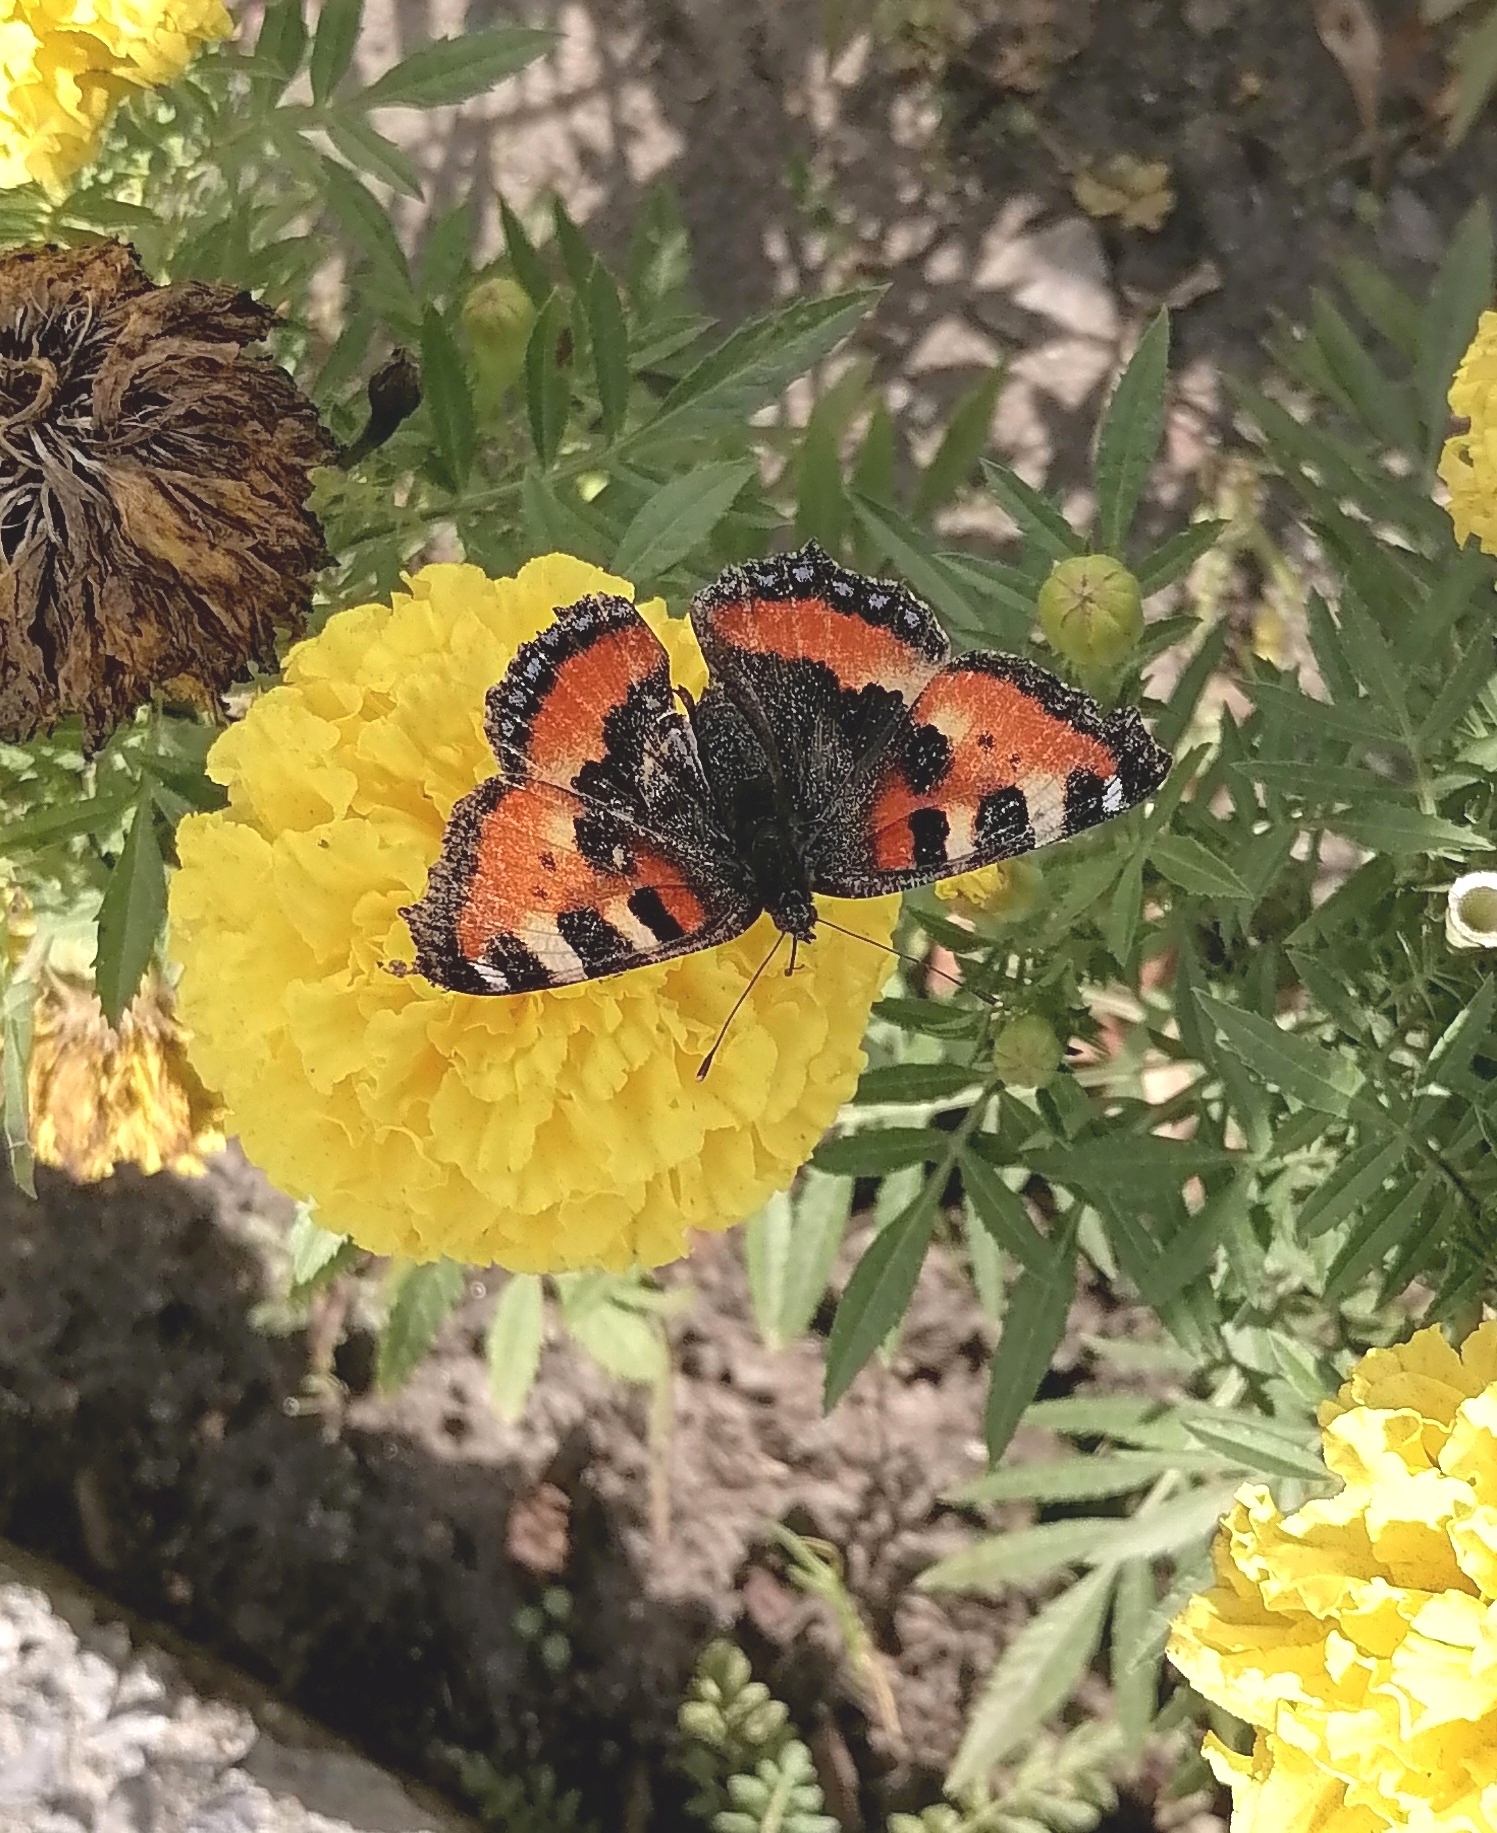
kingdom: Animalia
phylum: Arthropoda
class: Insecta
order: Lepidoptera
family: Nymphalidae
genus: Aglais
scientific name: Aglais urticae
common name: Small tortoiseshell
